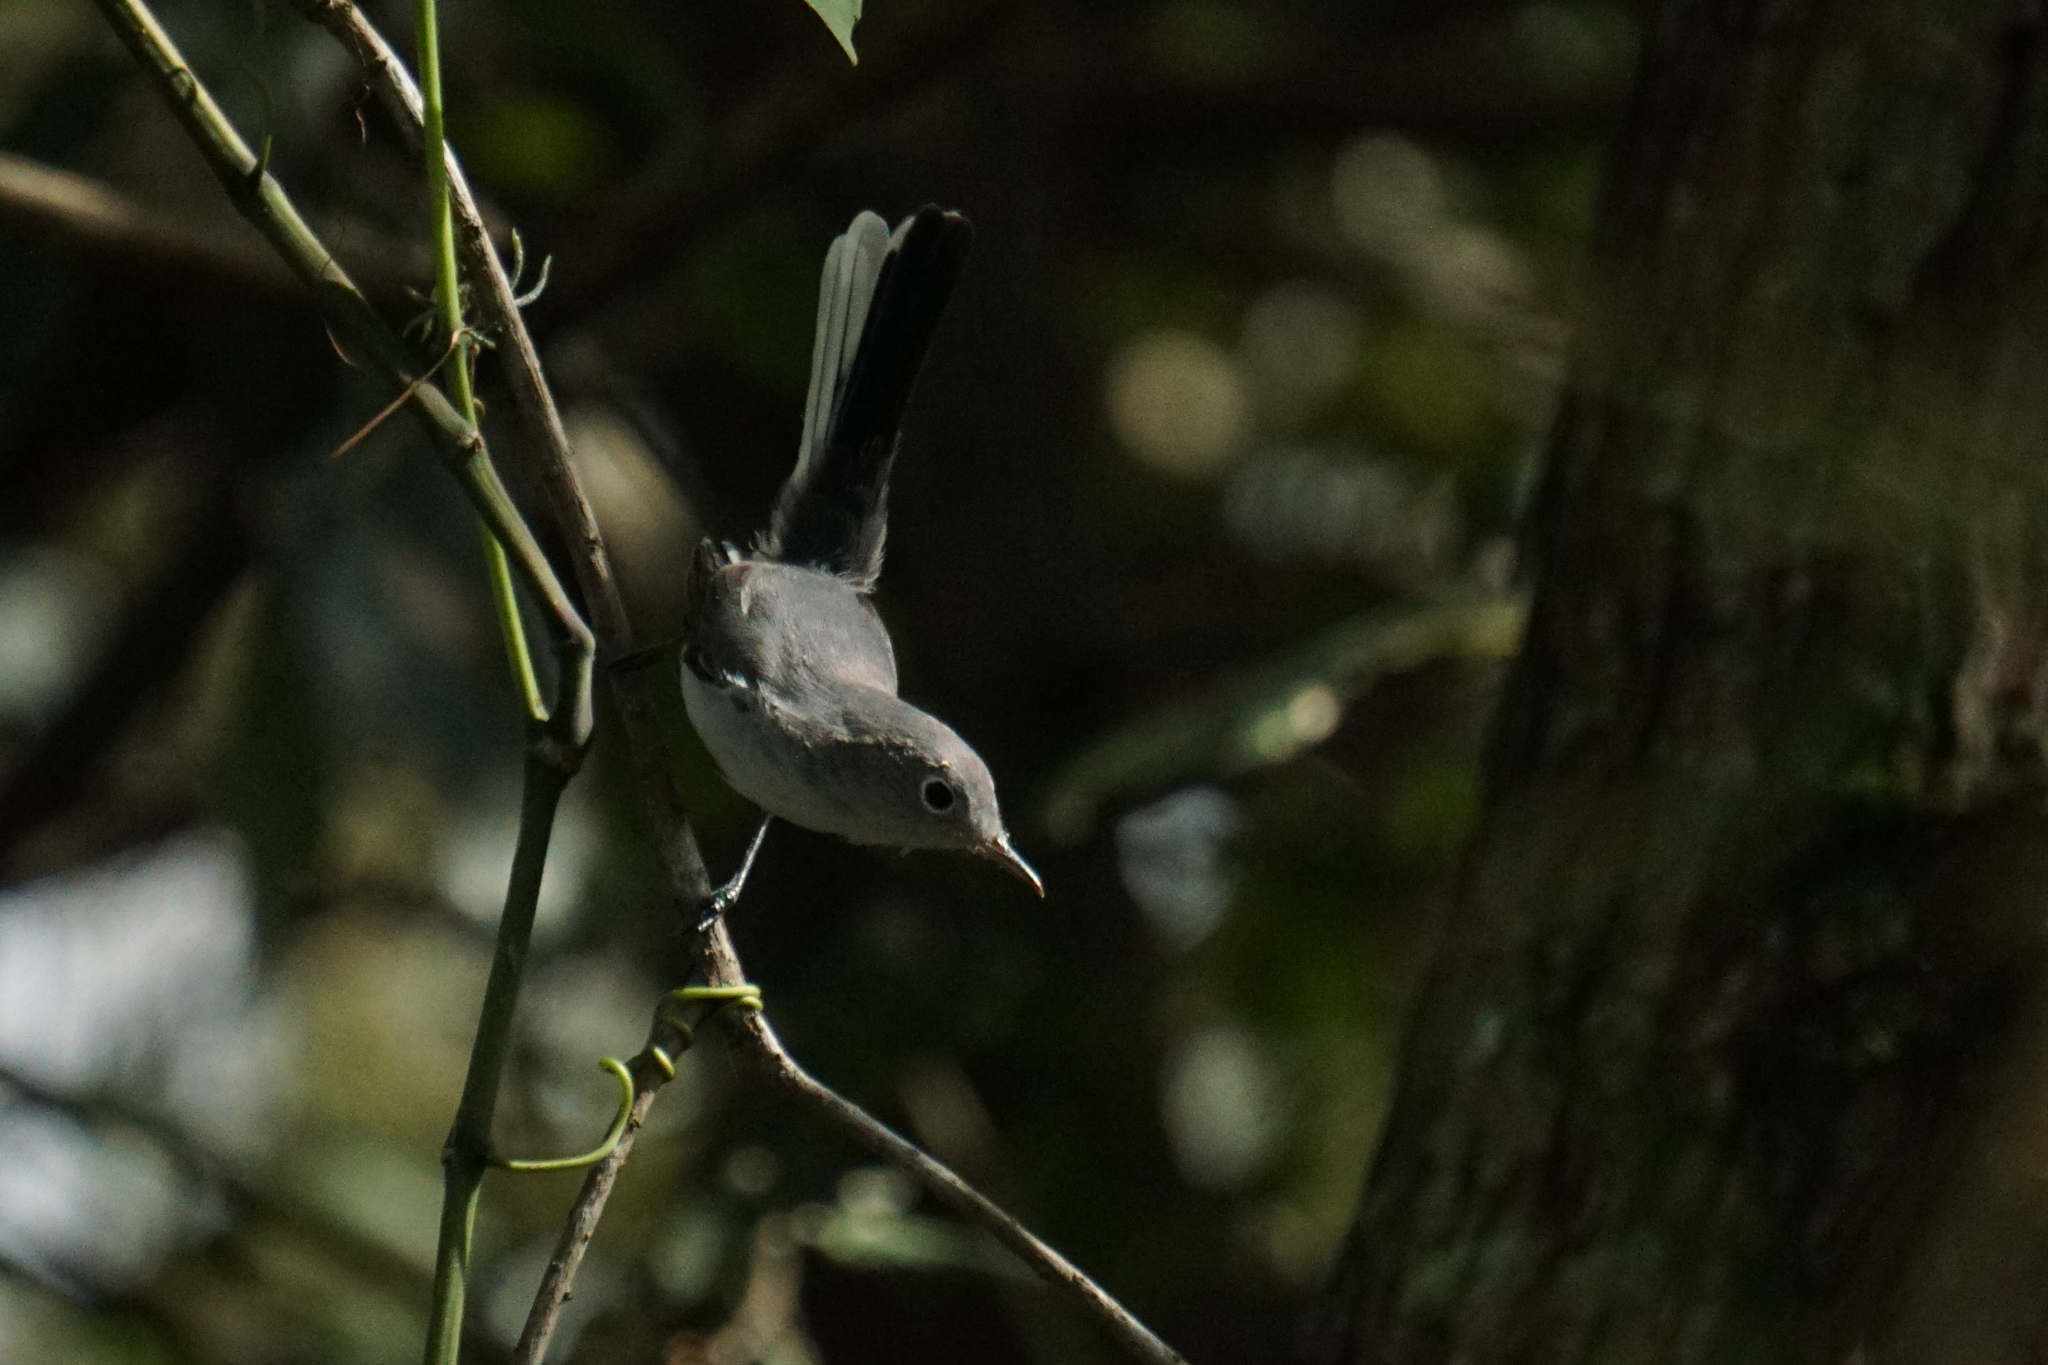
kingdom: Animalia
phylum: Chordata
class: Aves
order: Passeriformes
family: Polioptilidae
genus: Polioptila
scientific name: Polioptila caerulea
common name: Blue-gray gnatcatcher
